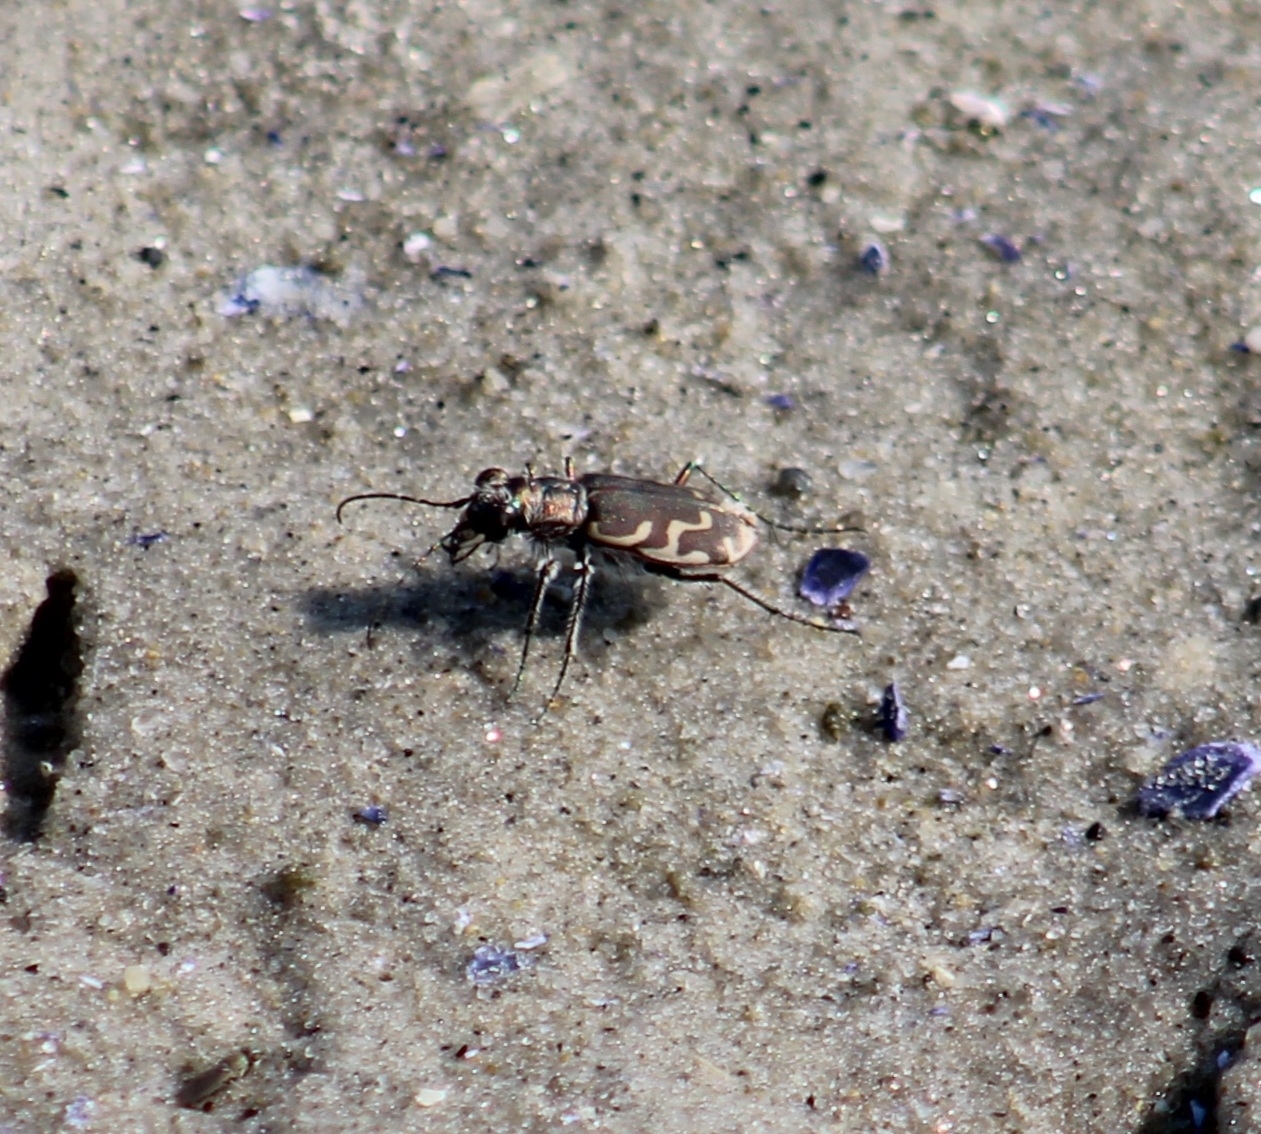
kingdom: Animalia
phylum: Arthropoda
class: Insecta
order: Coleoptera
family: Carabidae
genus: Cicindela
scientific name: Cicindela repanda
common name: Bronzed tiger beetle
